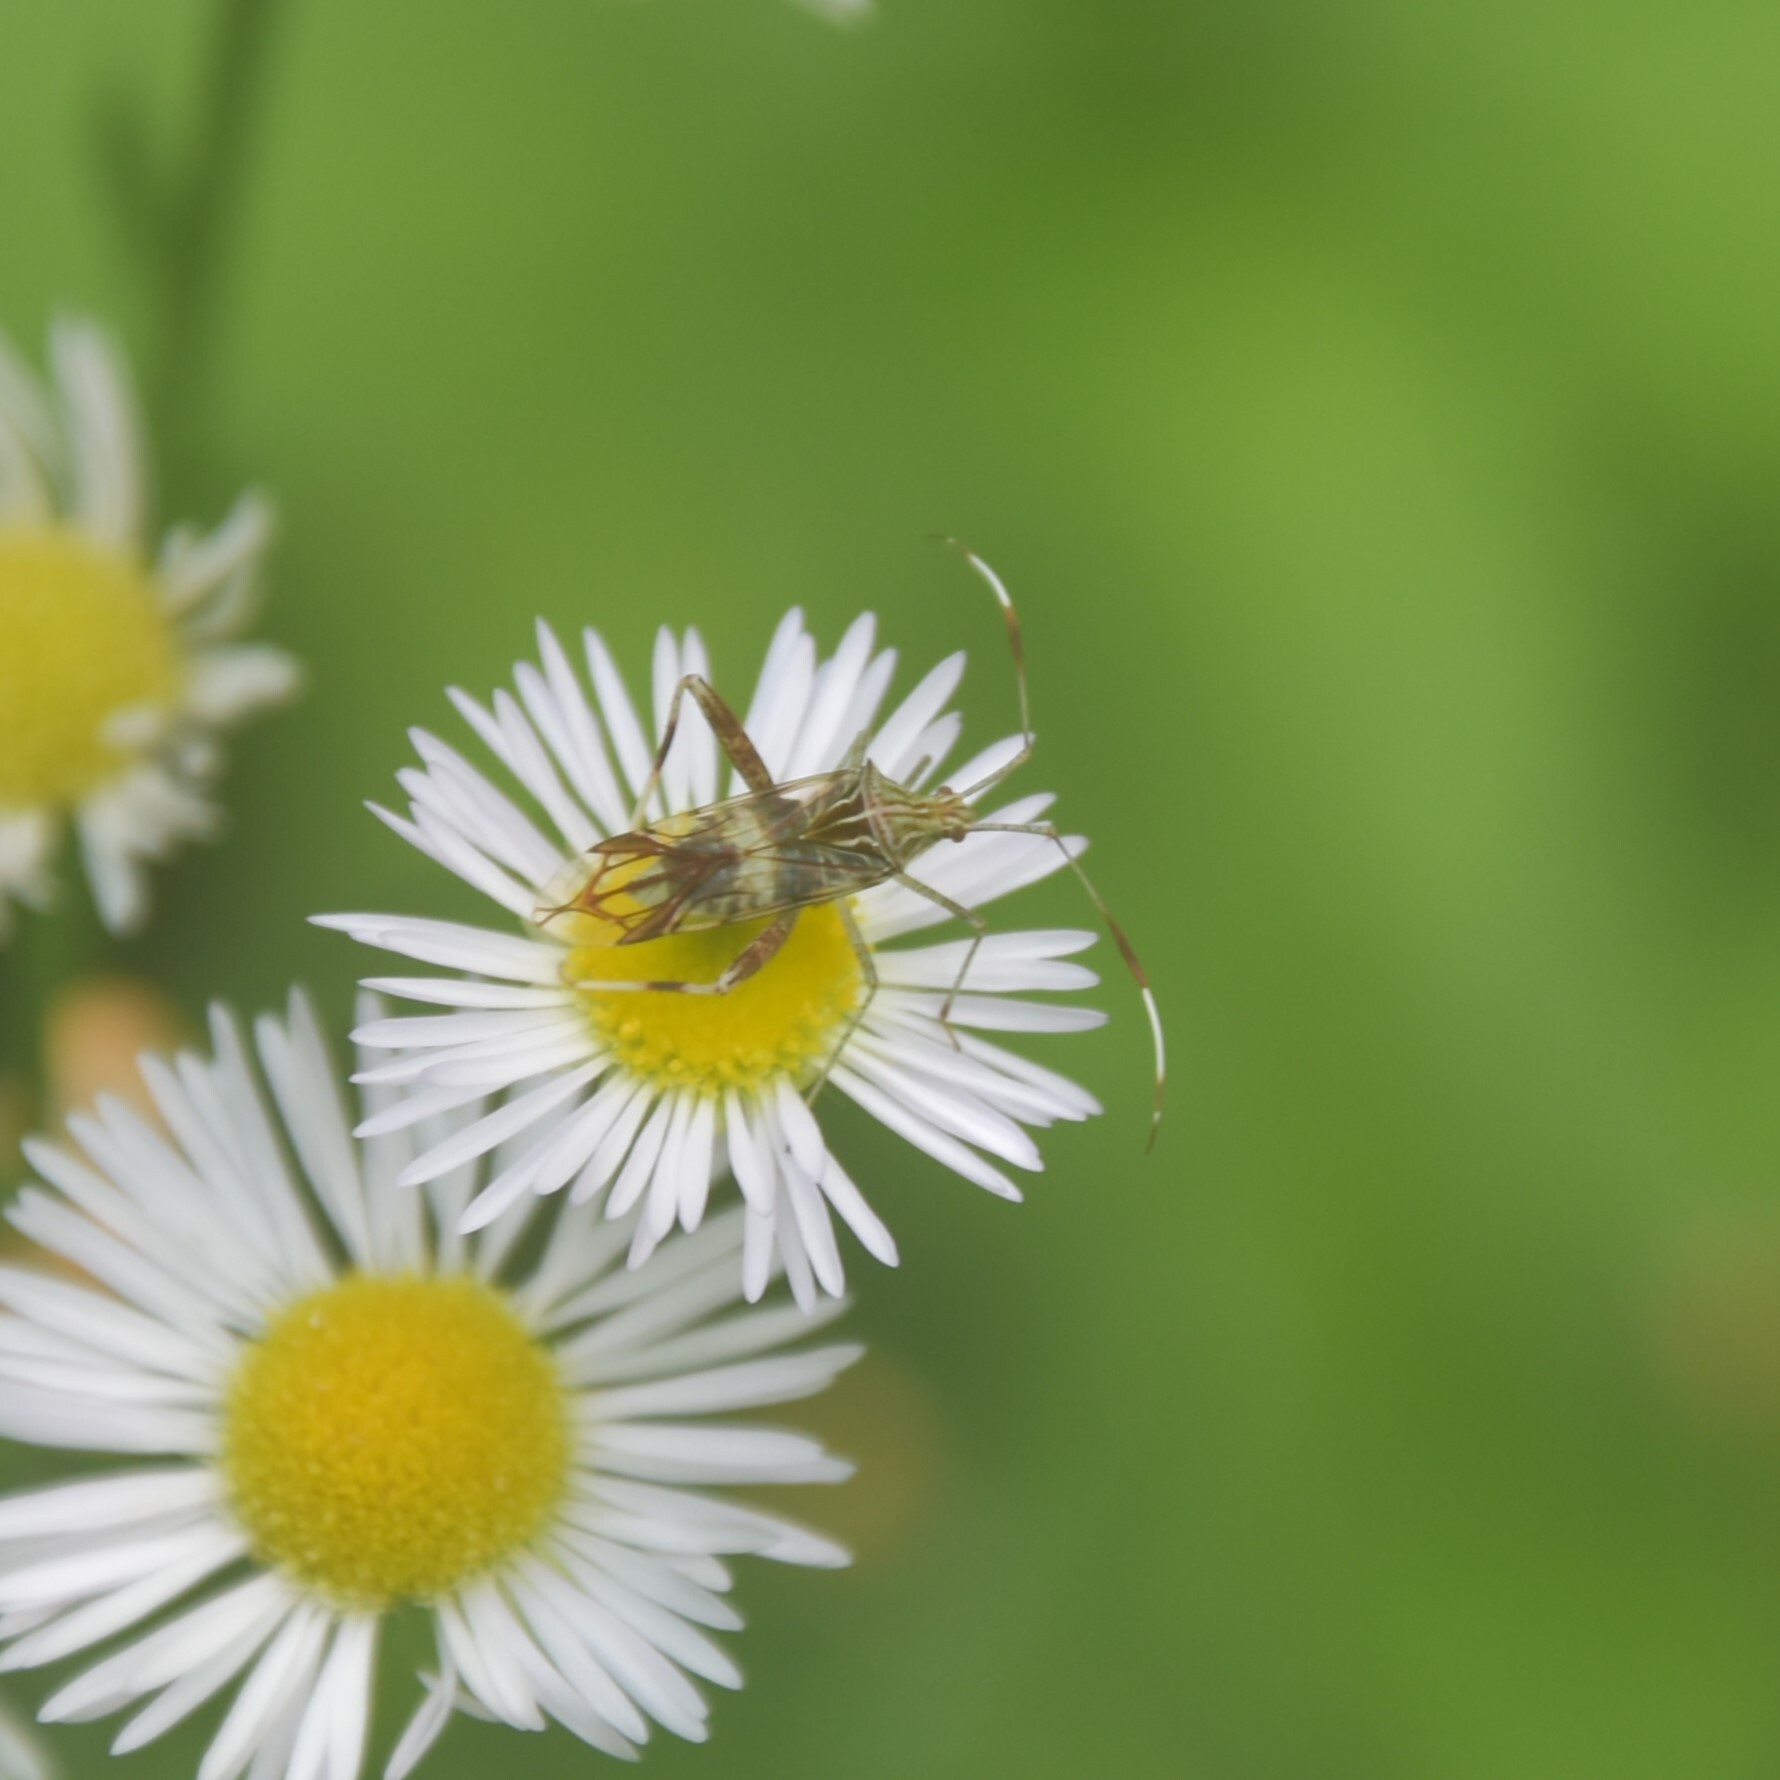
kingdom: Animalia
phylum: Arthropoda
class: Insecta
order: Hemiptera
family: Miridae
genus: Isabel
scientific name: Isabel ravana
